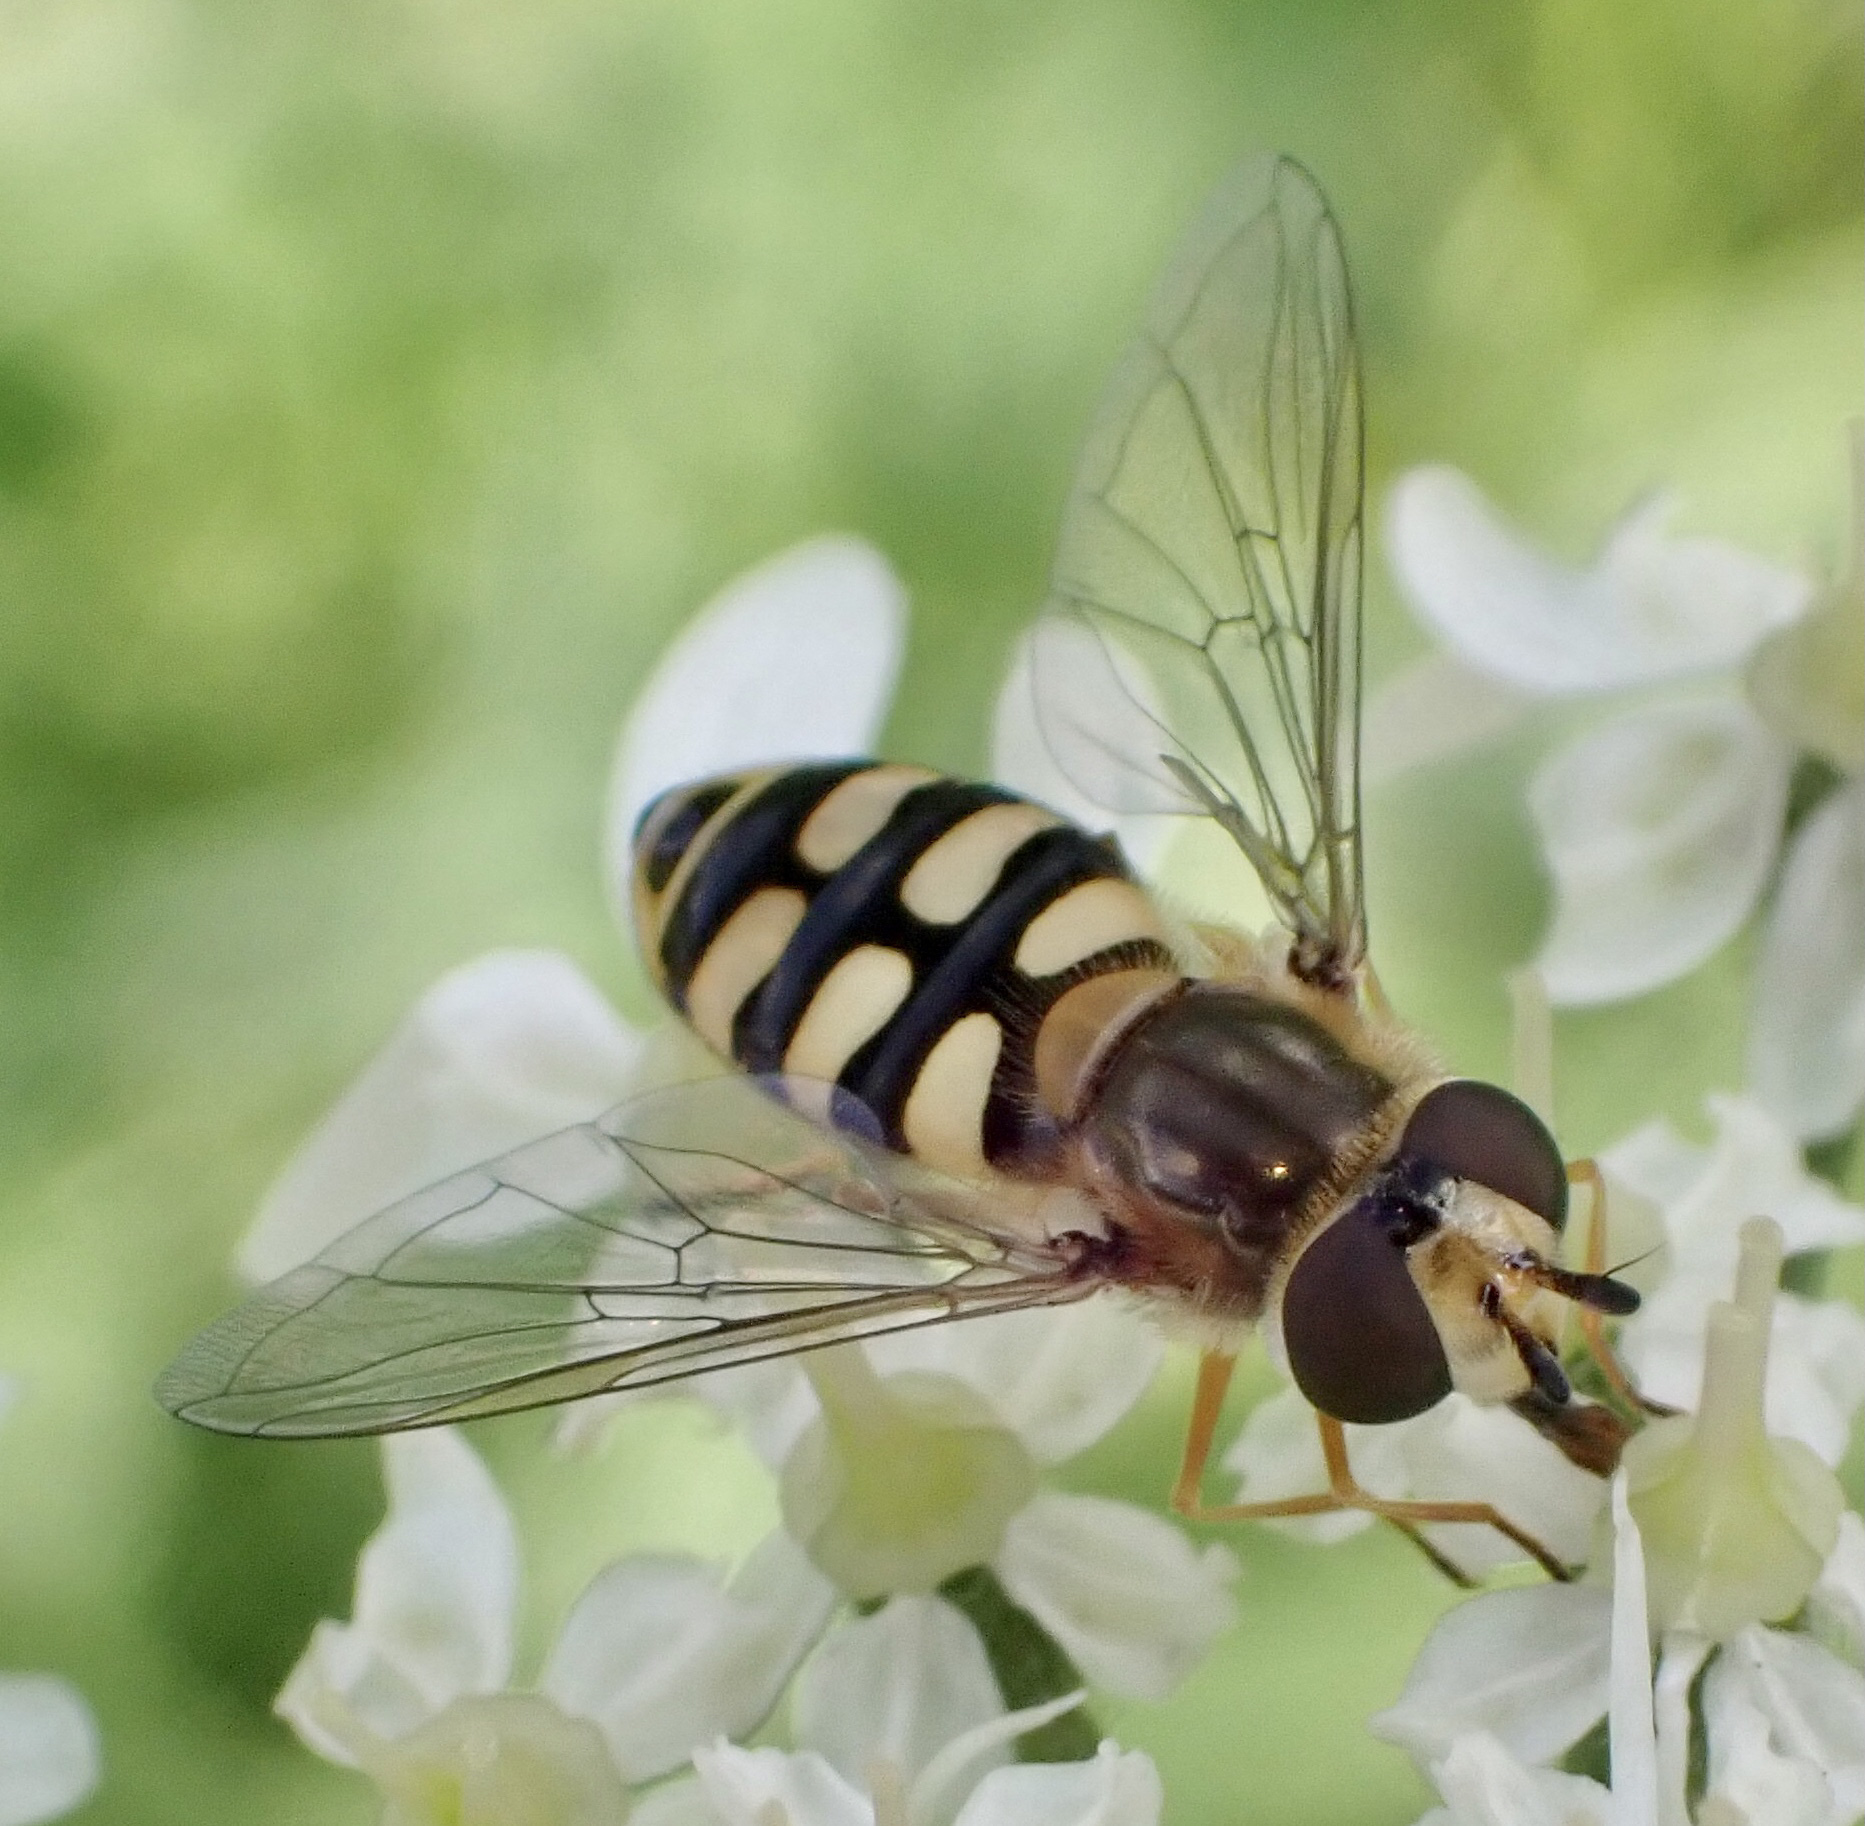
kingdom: Animalia
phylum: Arthropoda
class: Insecta
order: Diptera
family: Syrphidae
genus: Eupeodes
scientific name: Eupeodes corollae
